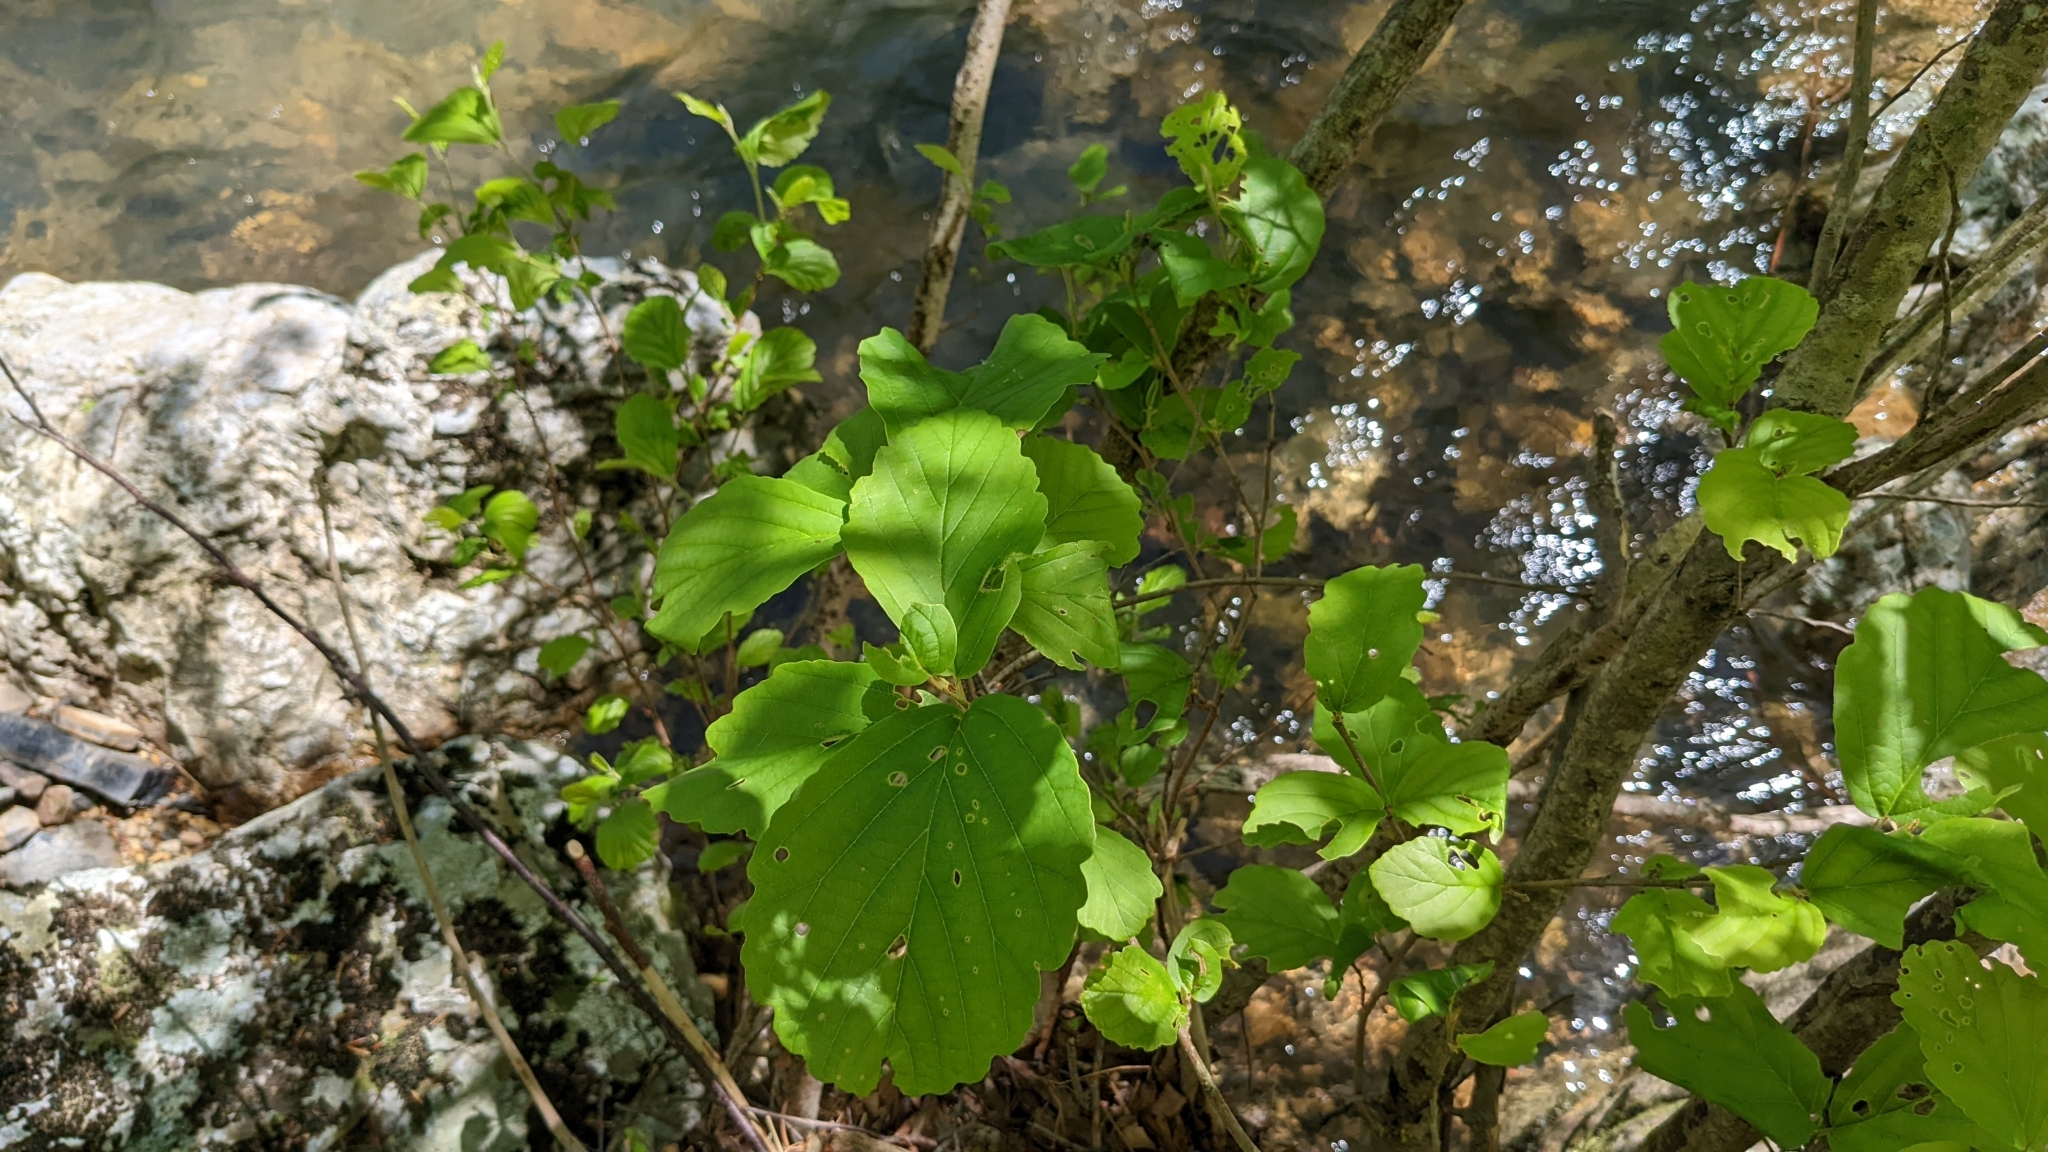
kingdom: Plantae
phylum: Tracheophyta
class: Magnoliopsida
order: Saxifragales
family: Hamamelidaceae
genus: Hamamelis
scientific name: Hamamelis virginiana
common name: Witch-hazel
